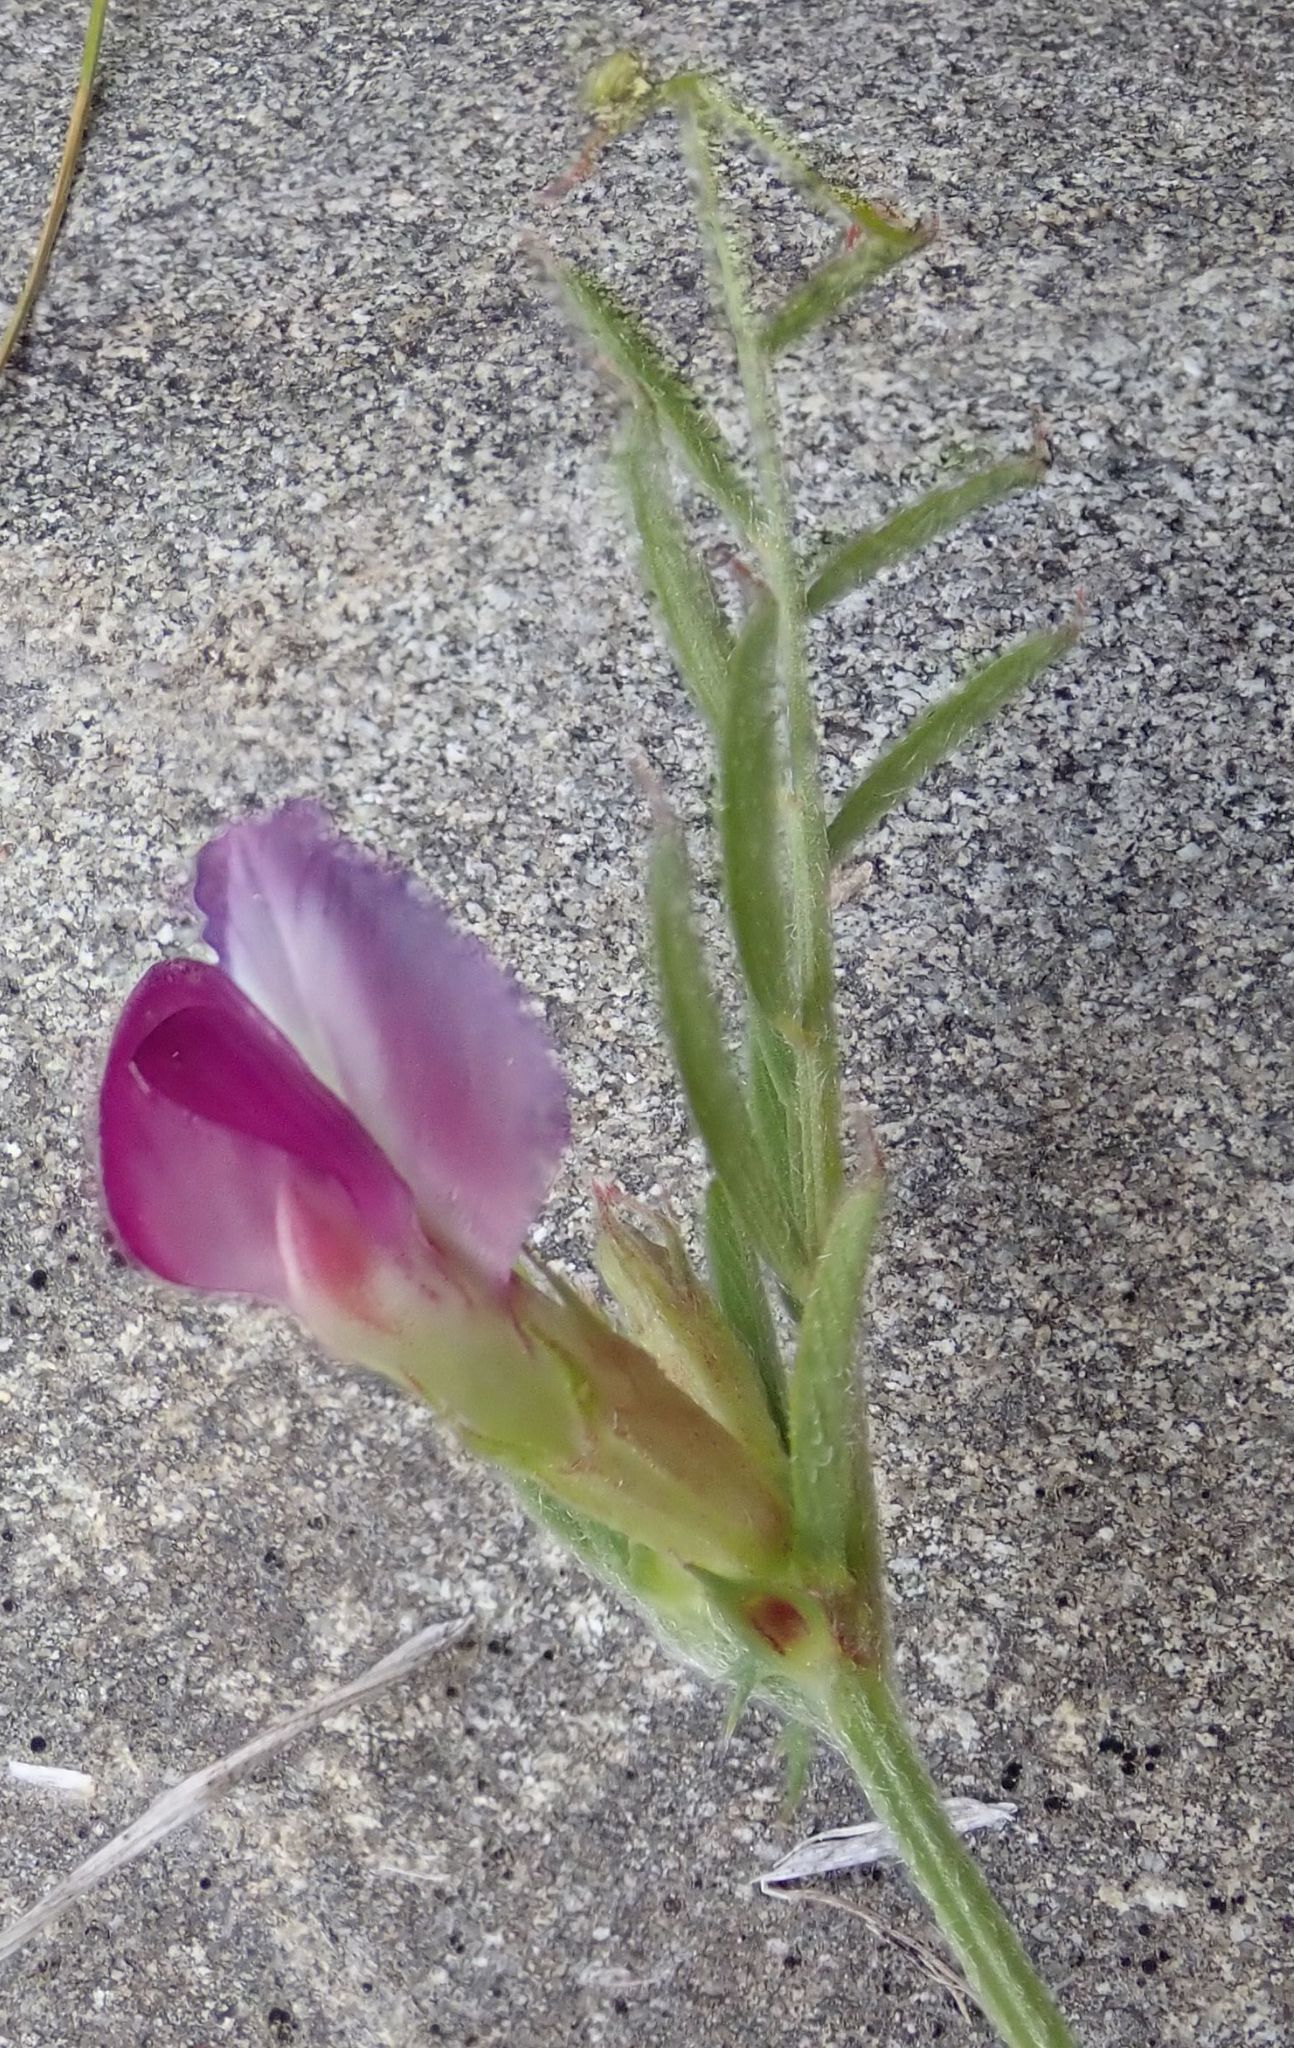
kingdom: Plantae
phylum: Tracheophyta
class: Magnoliopsida
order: Fabales
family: Fabaceae
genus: Vicia
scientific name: Vicia sativa
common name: Garden vetch
